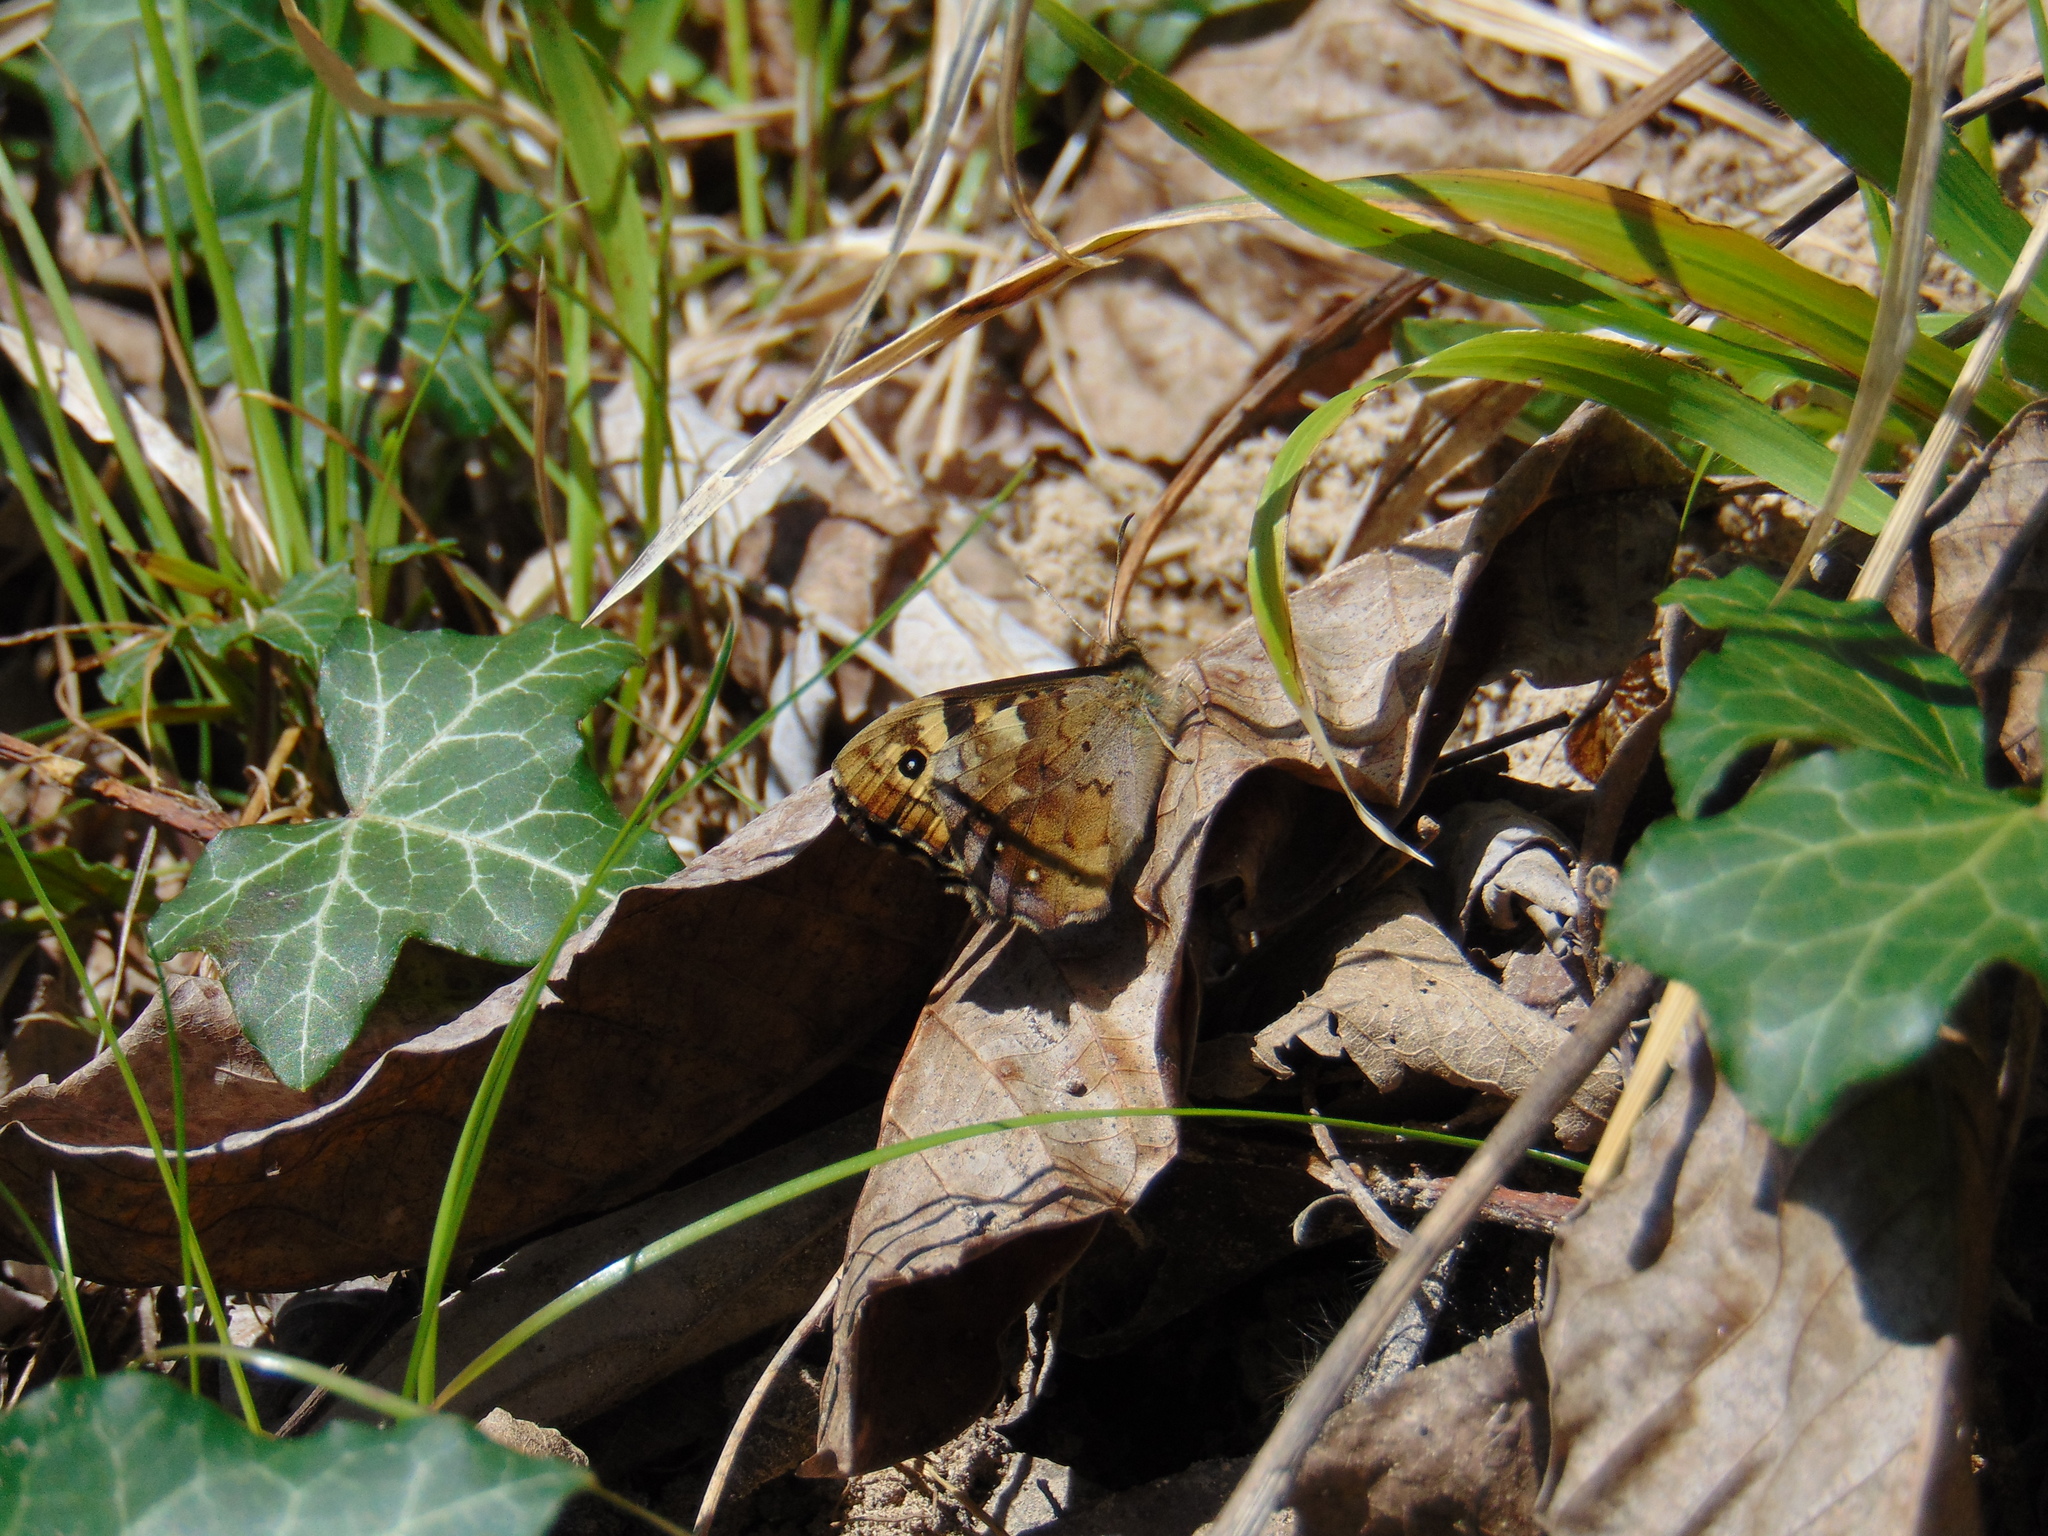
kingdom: Animalia
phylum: Arthropoda
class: Insecta
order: Lepidoptera
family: Nymphalidae
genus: Pararge
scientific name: Pararge aegeria
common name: Speckled wood
